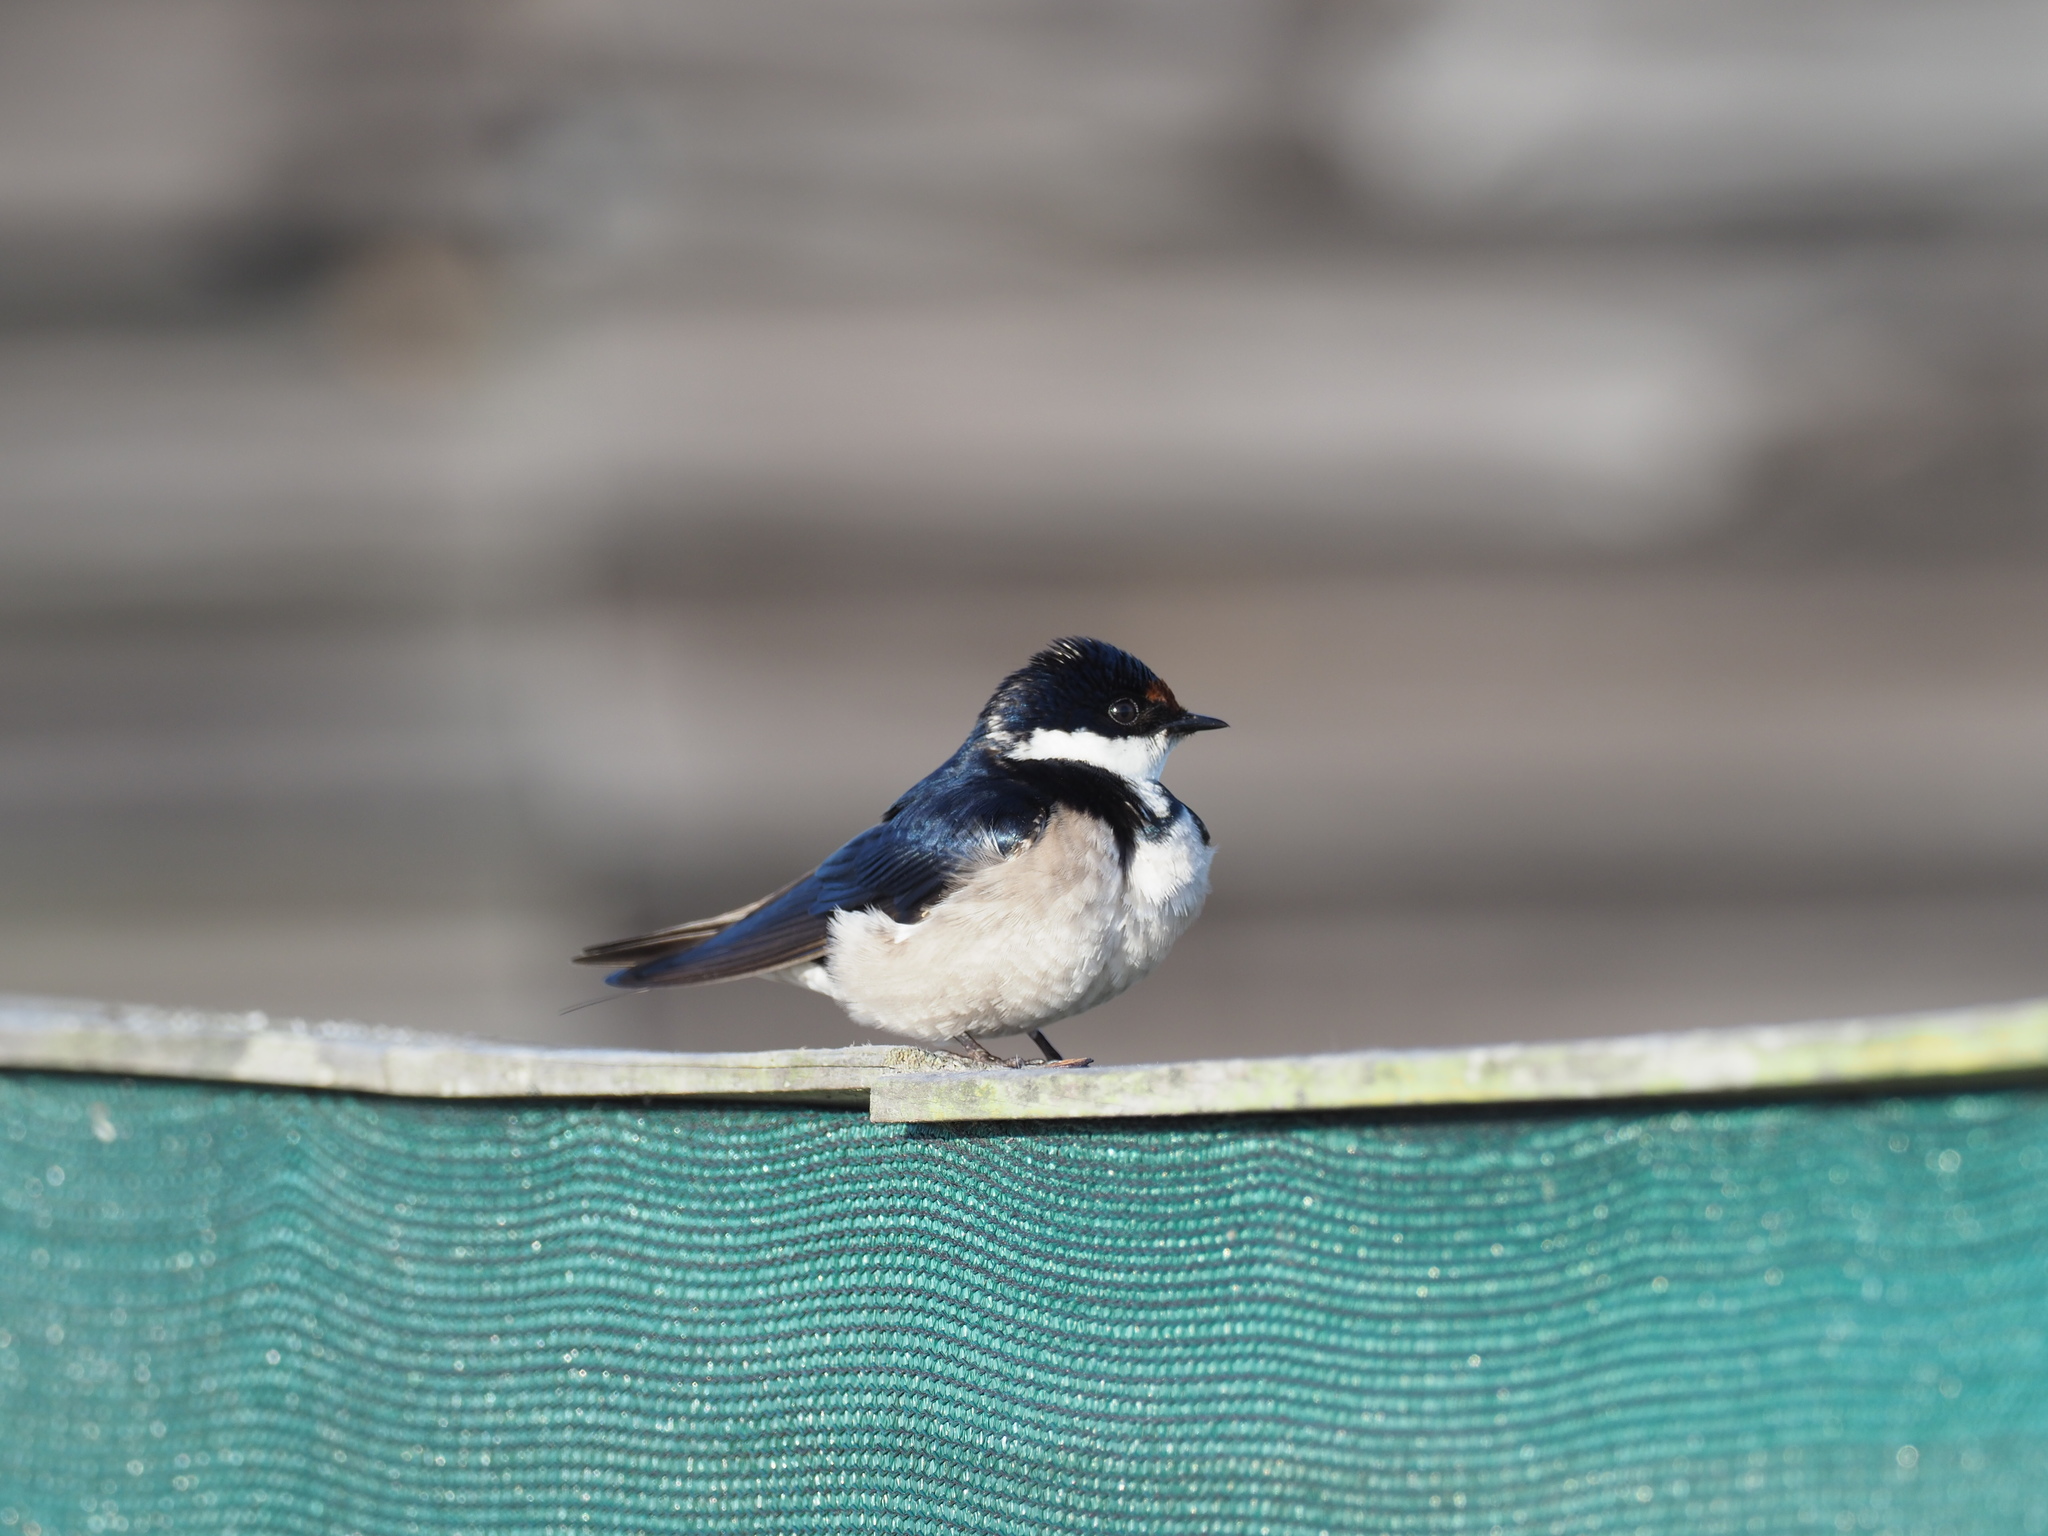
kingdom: Animalia
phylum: Chordata
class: Aves
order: Passeriformes
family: Hirundinidae
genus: Hirundo
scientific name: Hirundo albigularis
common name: White-throated swallow
